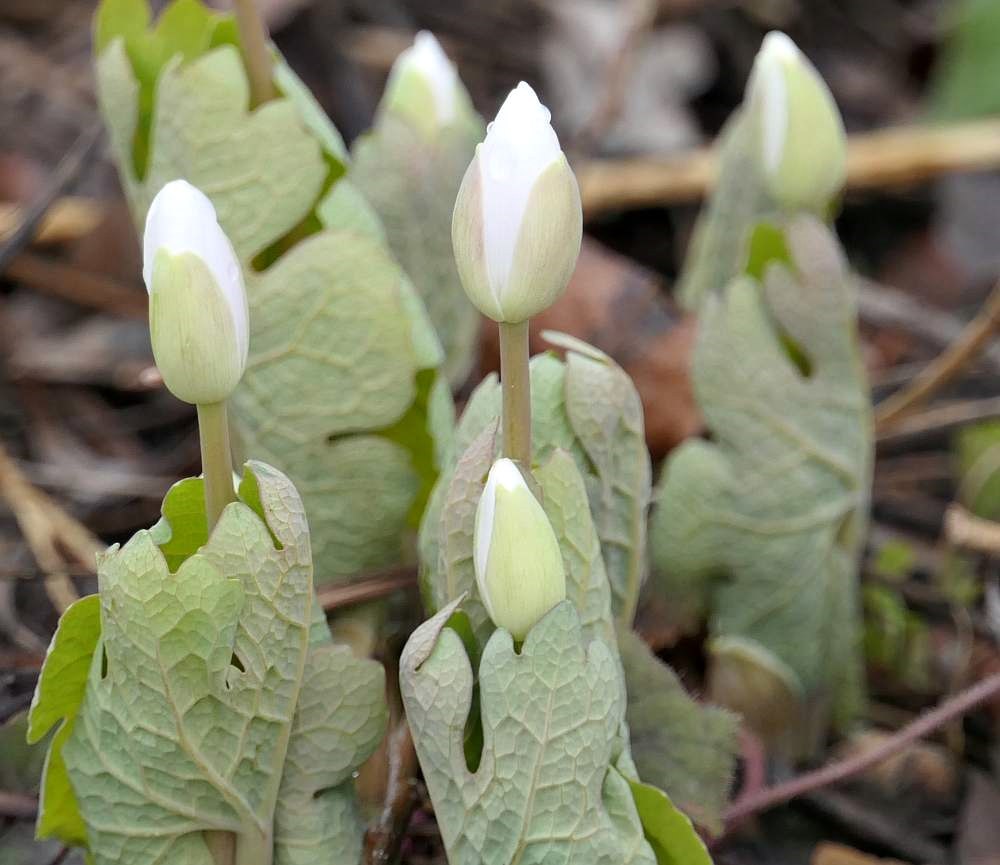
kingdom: Plantae
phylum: Tracheophyta
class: Magnoliopsida
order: Ranunculales
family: Papaveraceae
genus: Sanguinaria
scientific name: Sanguinaria canadensis
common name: Bloodroot
